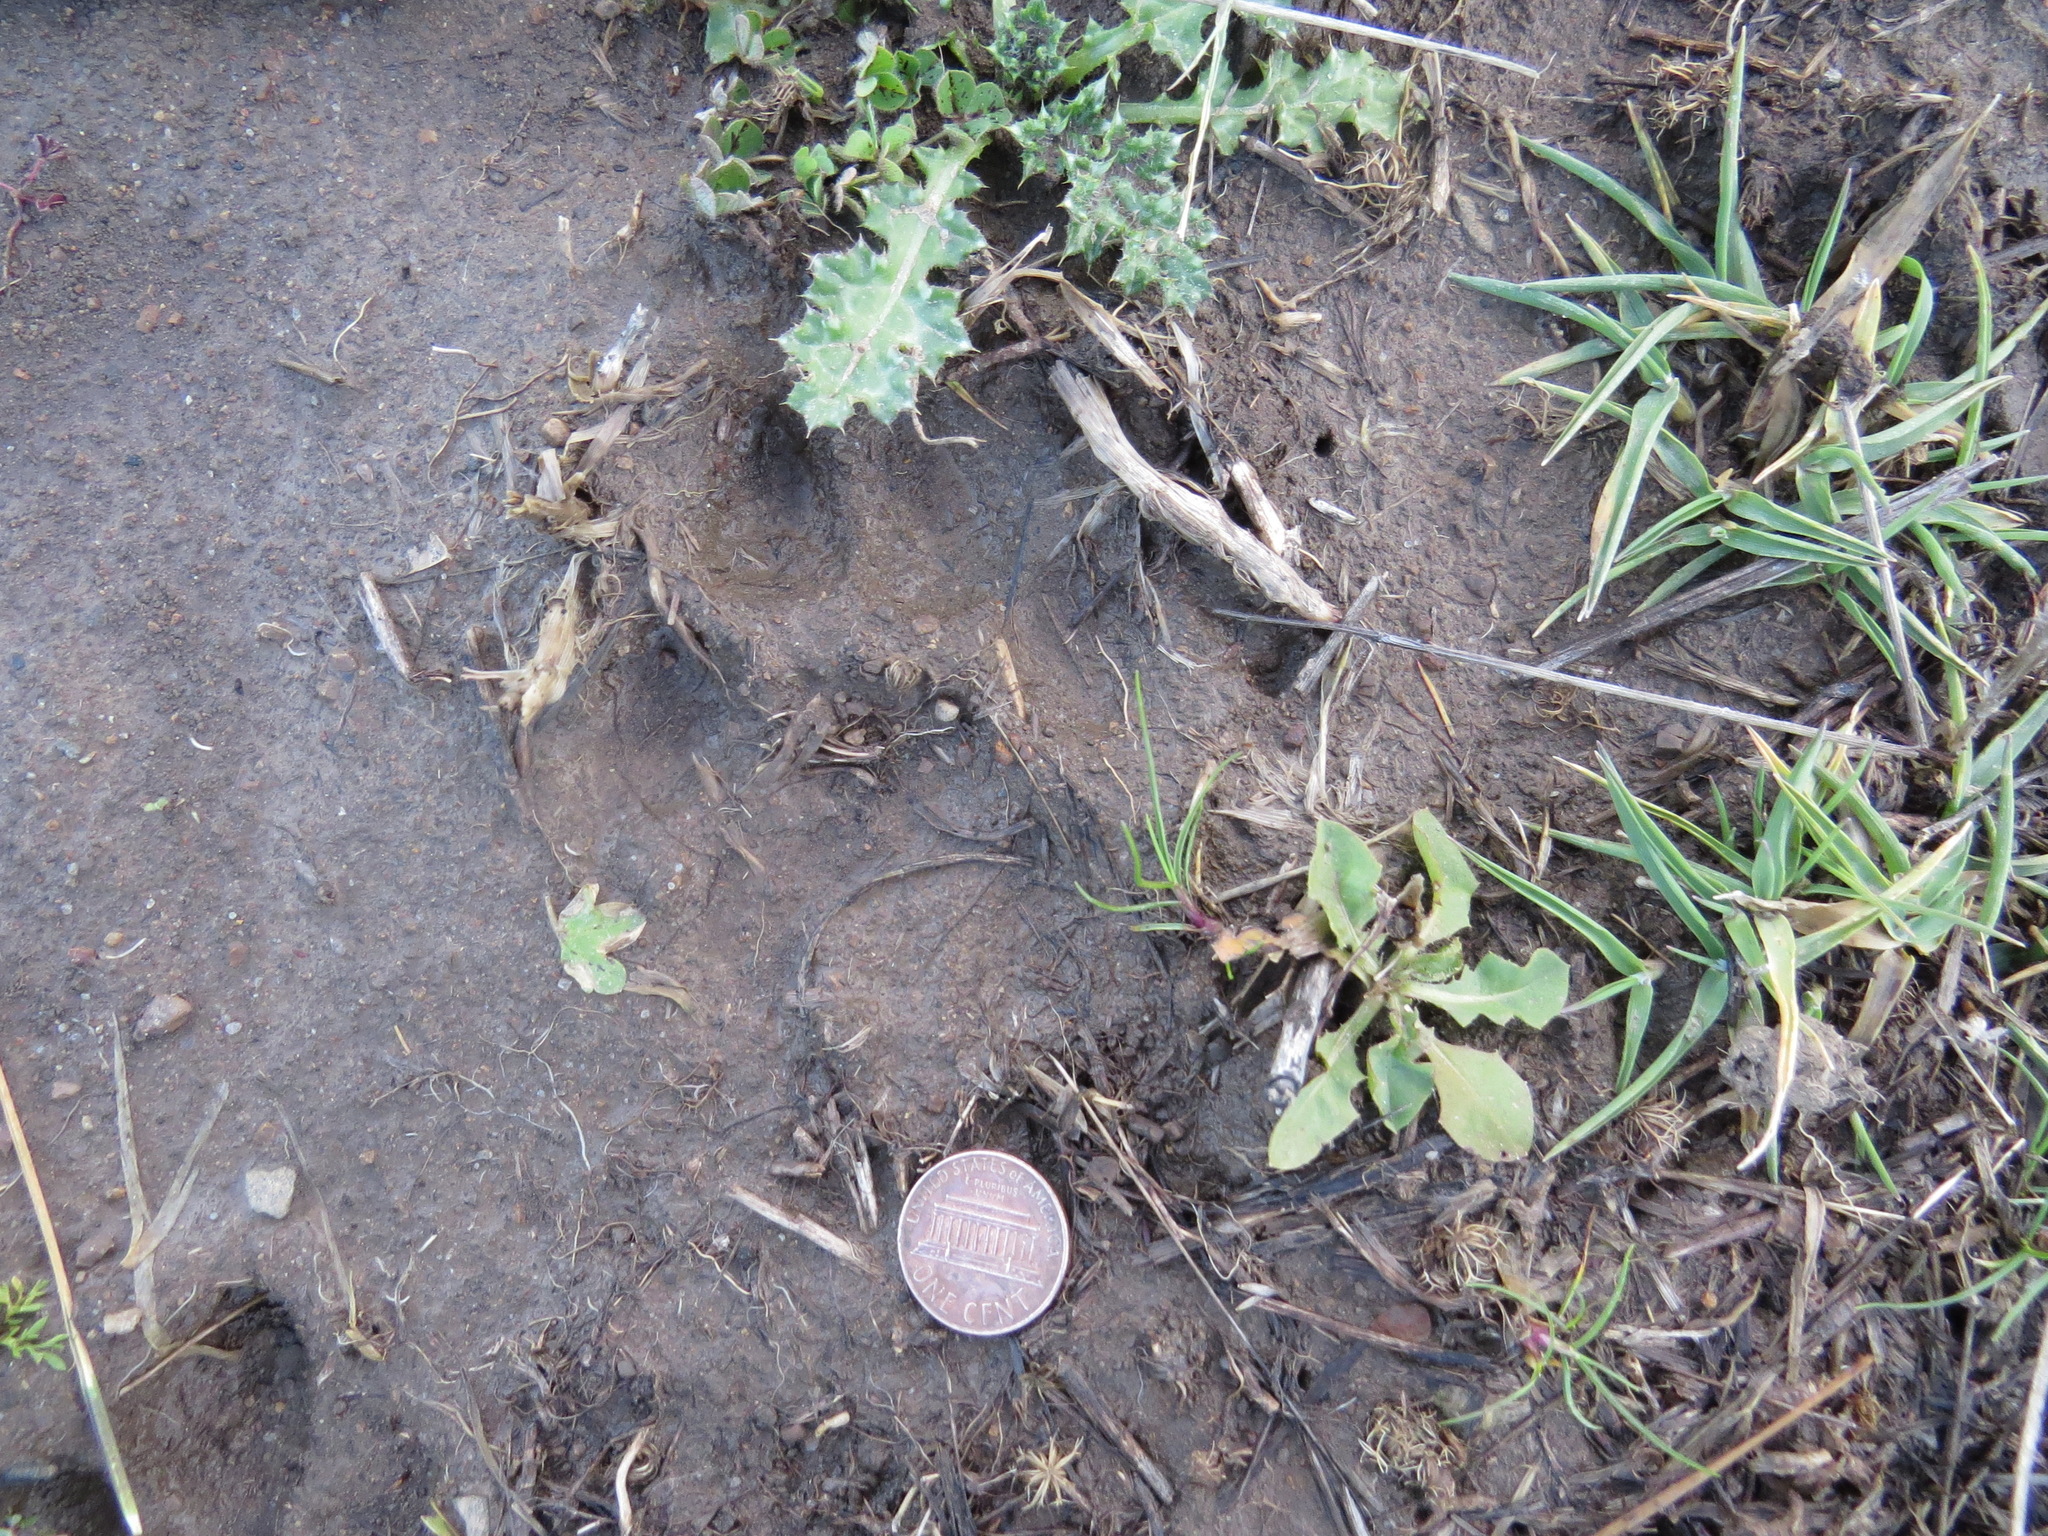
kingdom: Animalia
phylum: Chordata
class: Mammalia
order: Carnivora
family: Felidae
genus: Puma
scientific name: Puma concolor
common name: Puma
